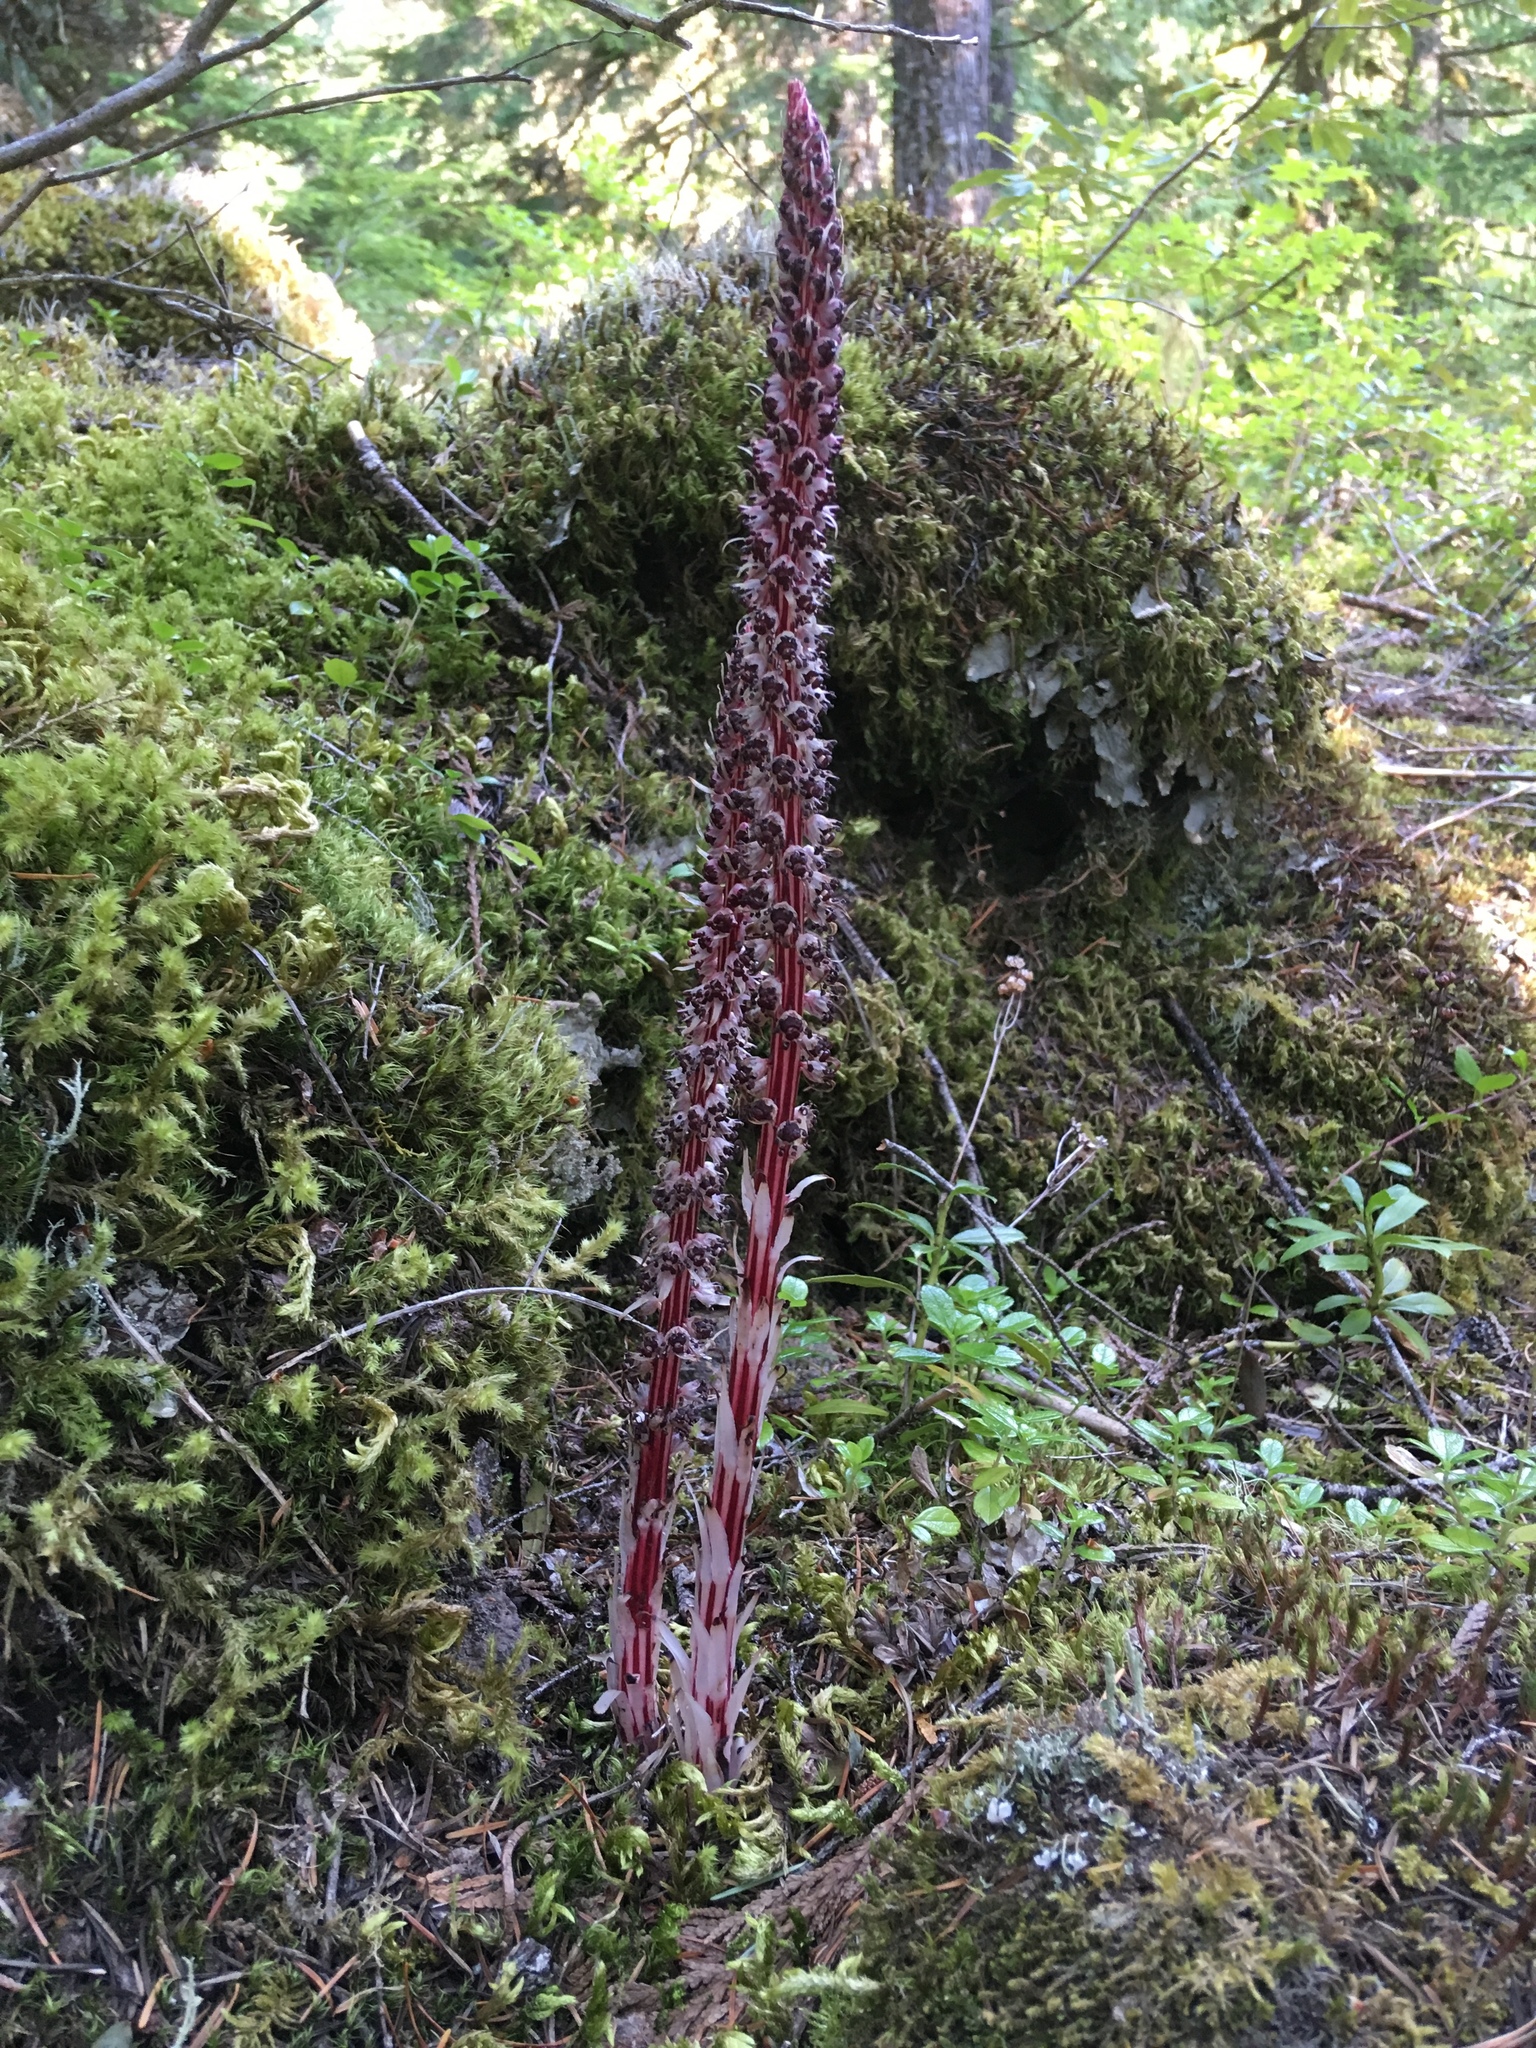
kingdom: Plantae
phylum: Tracheophyta
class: Magnoliopsida
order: Ericales
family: Ericaceae
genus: Allotropa
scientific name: Allotropa virgata
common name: Candy-striped allotropa
